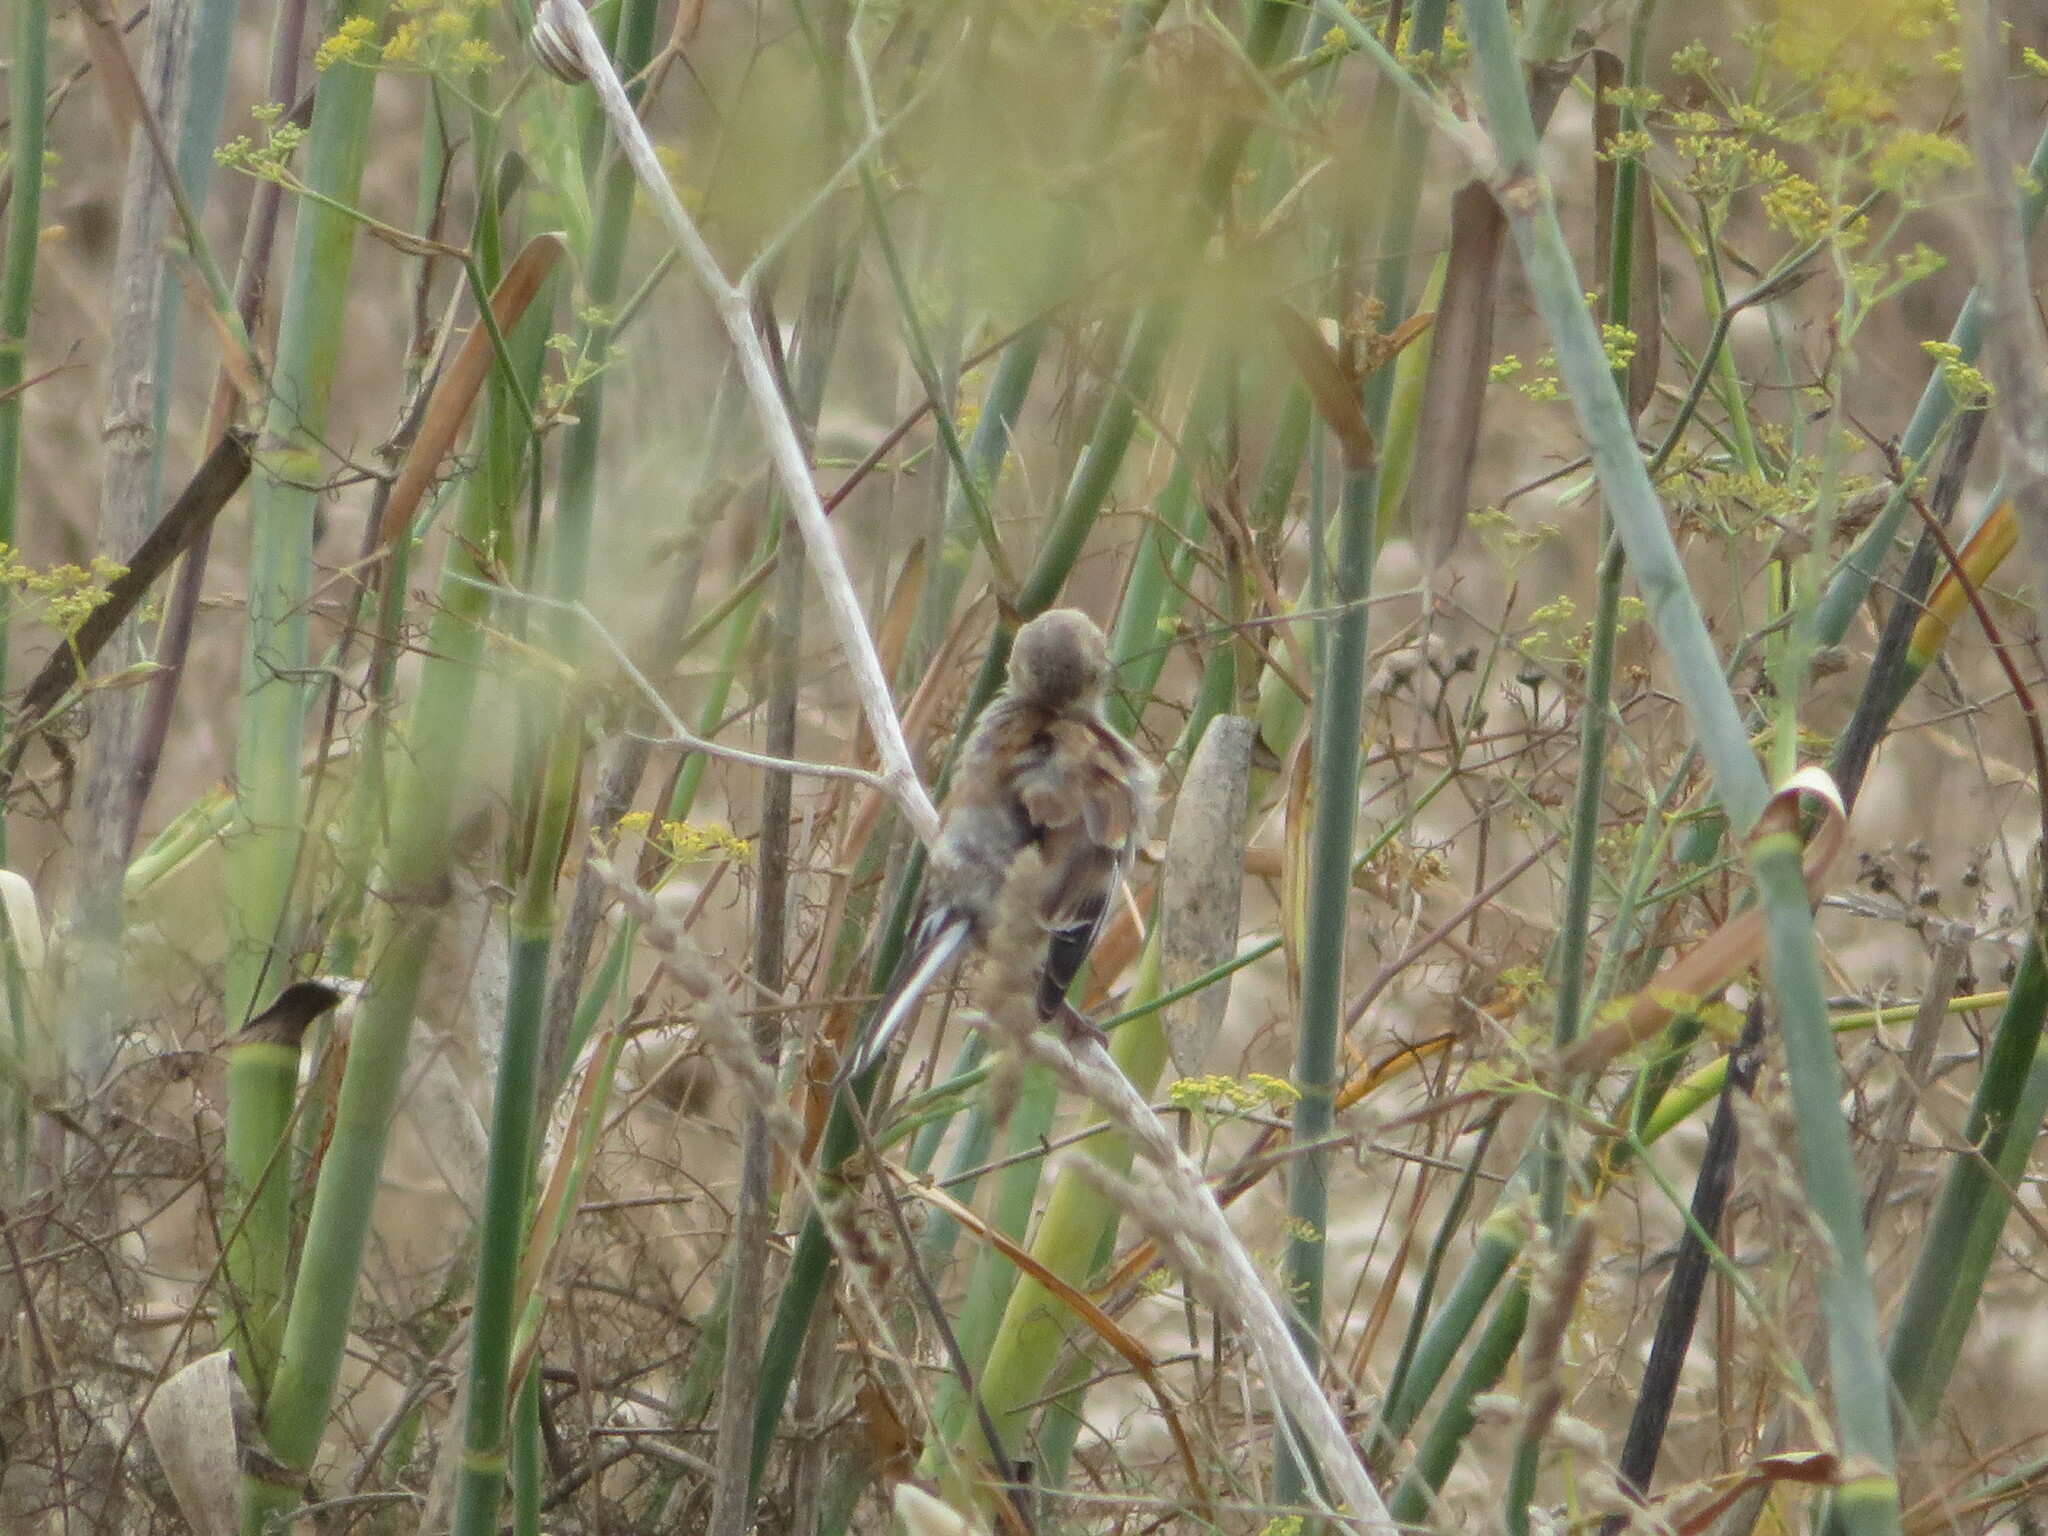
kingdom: Animalia
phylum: Chordata
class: Aves
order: Passeriformes
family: Fringillidae
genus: Linaria
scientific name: Linaria cannabina
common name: Common linnet
